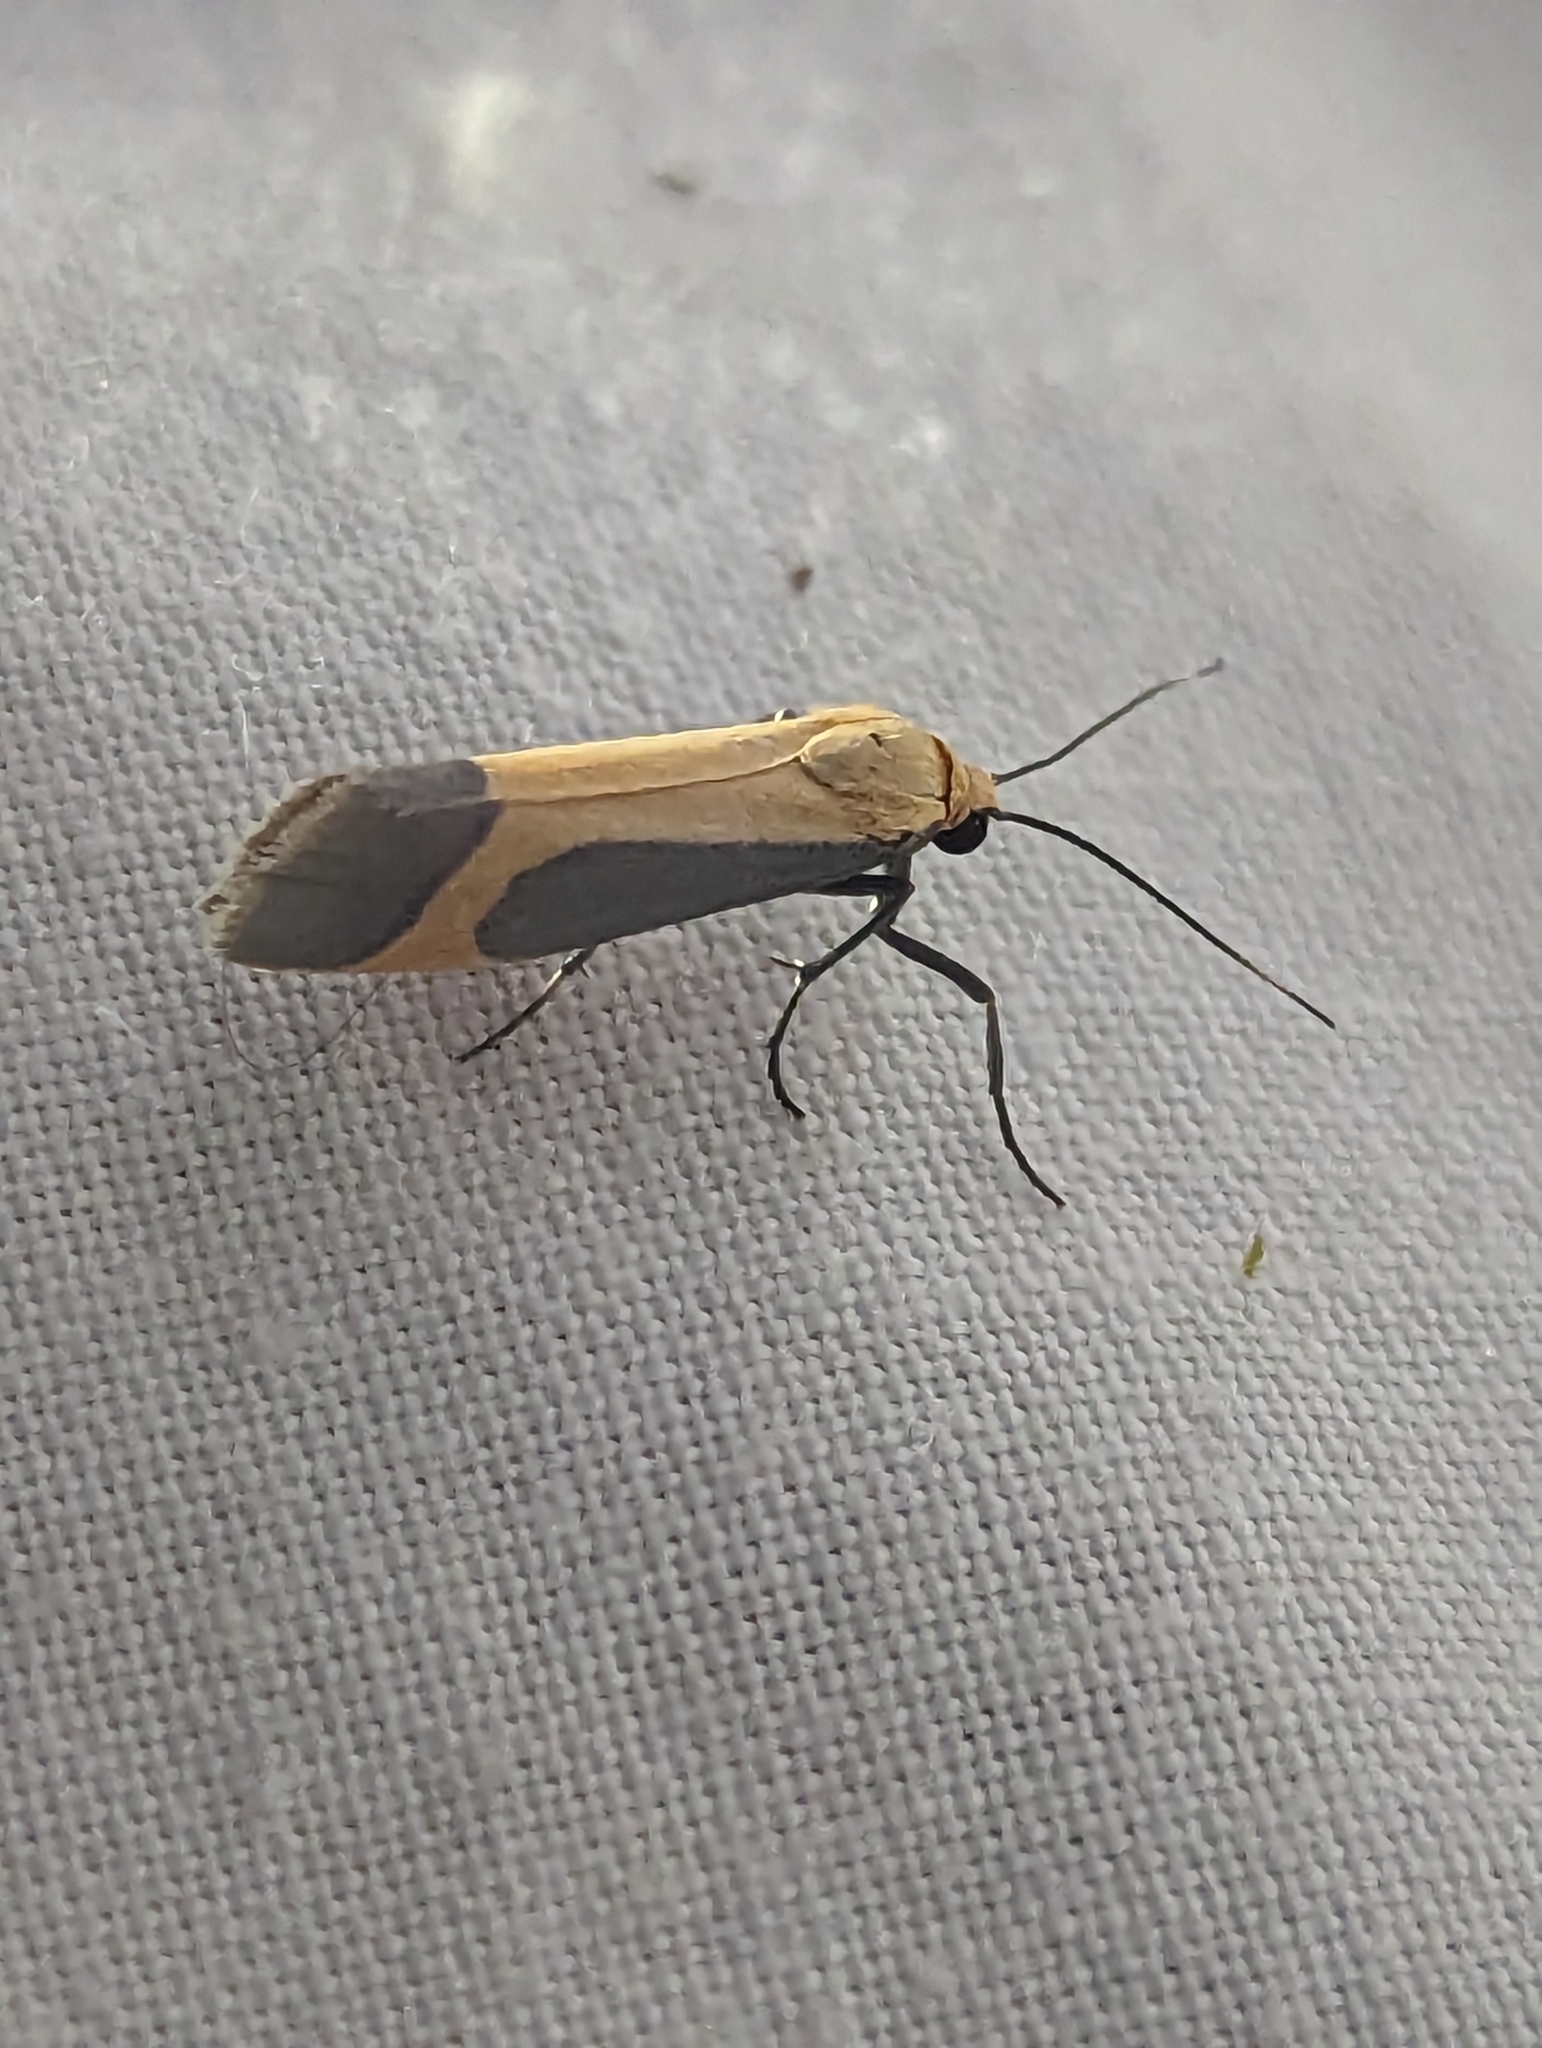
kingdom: Animalia
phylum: Arthropoda
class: Insecta
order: Lepidoptera
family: Erebidae
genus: Cisthene
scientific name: Cisthene angelus
